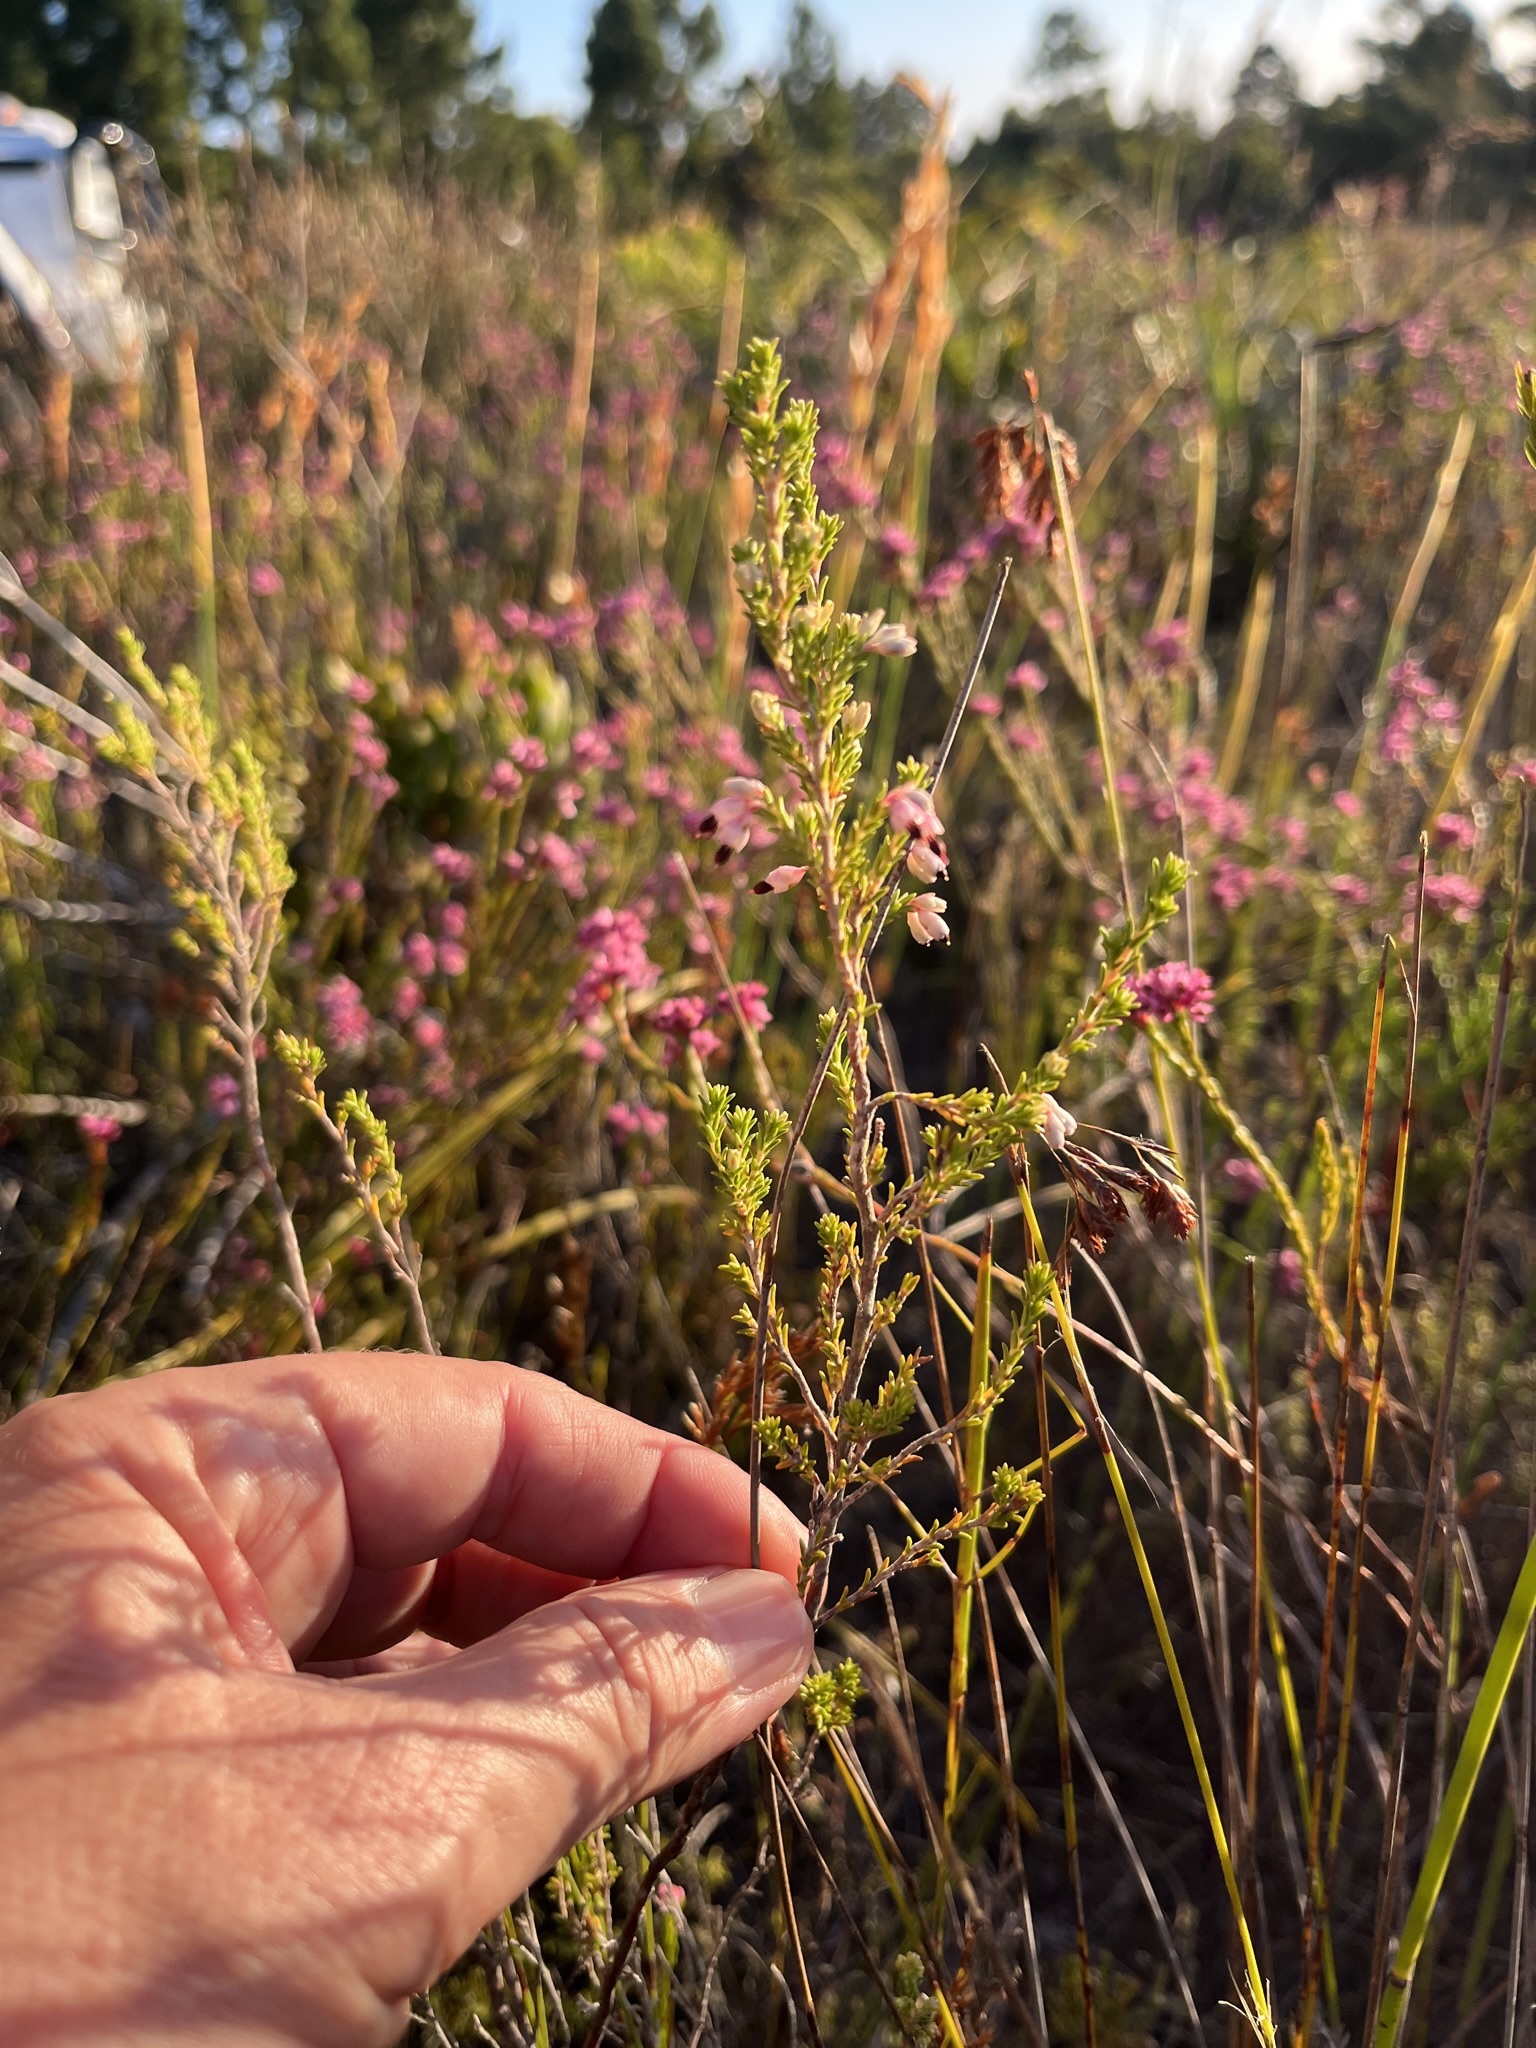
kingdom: Plantae
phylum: Tracheophyta
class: Magnoliopsida
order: Ericales
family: Ericaceae
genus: Erica
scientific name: Erica placentiflora
